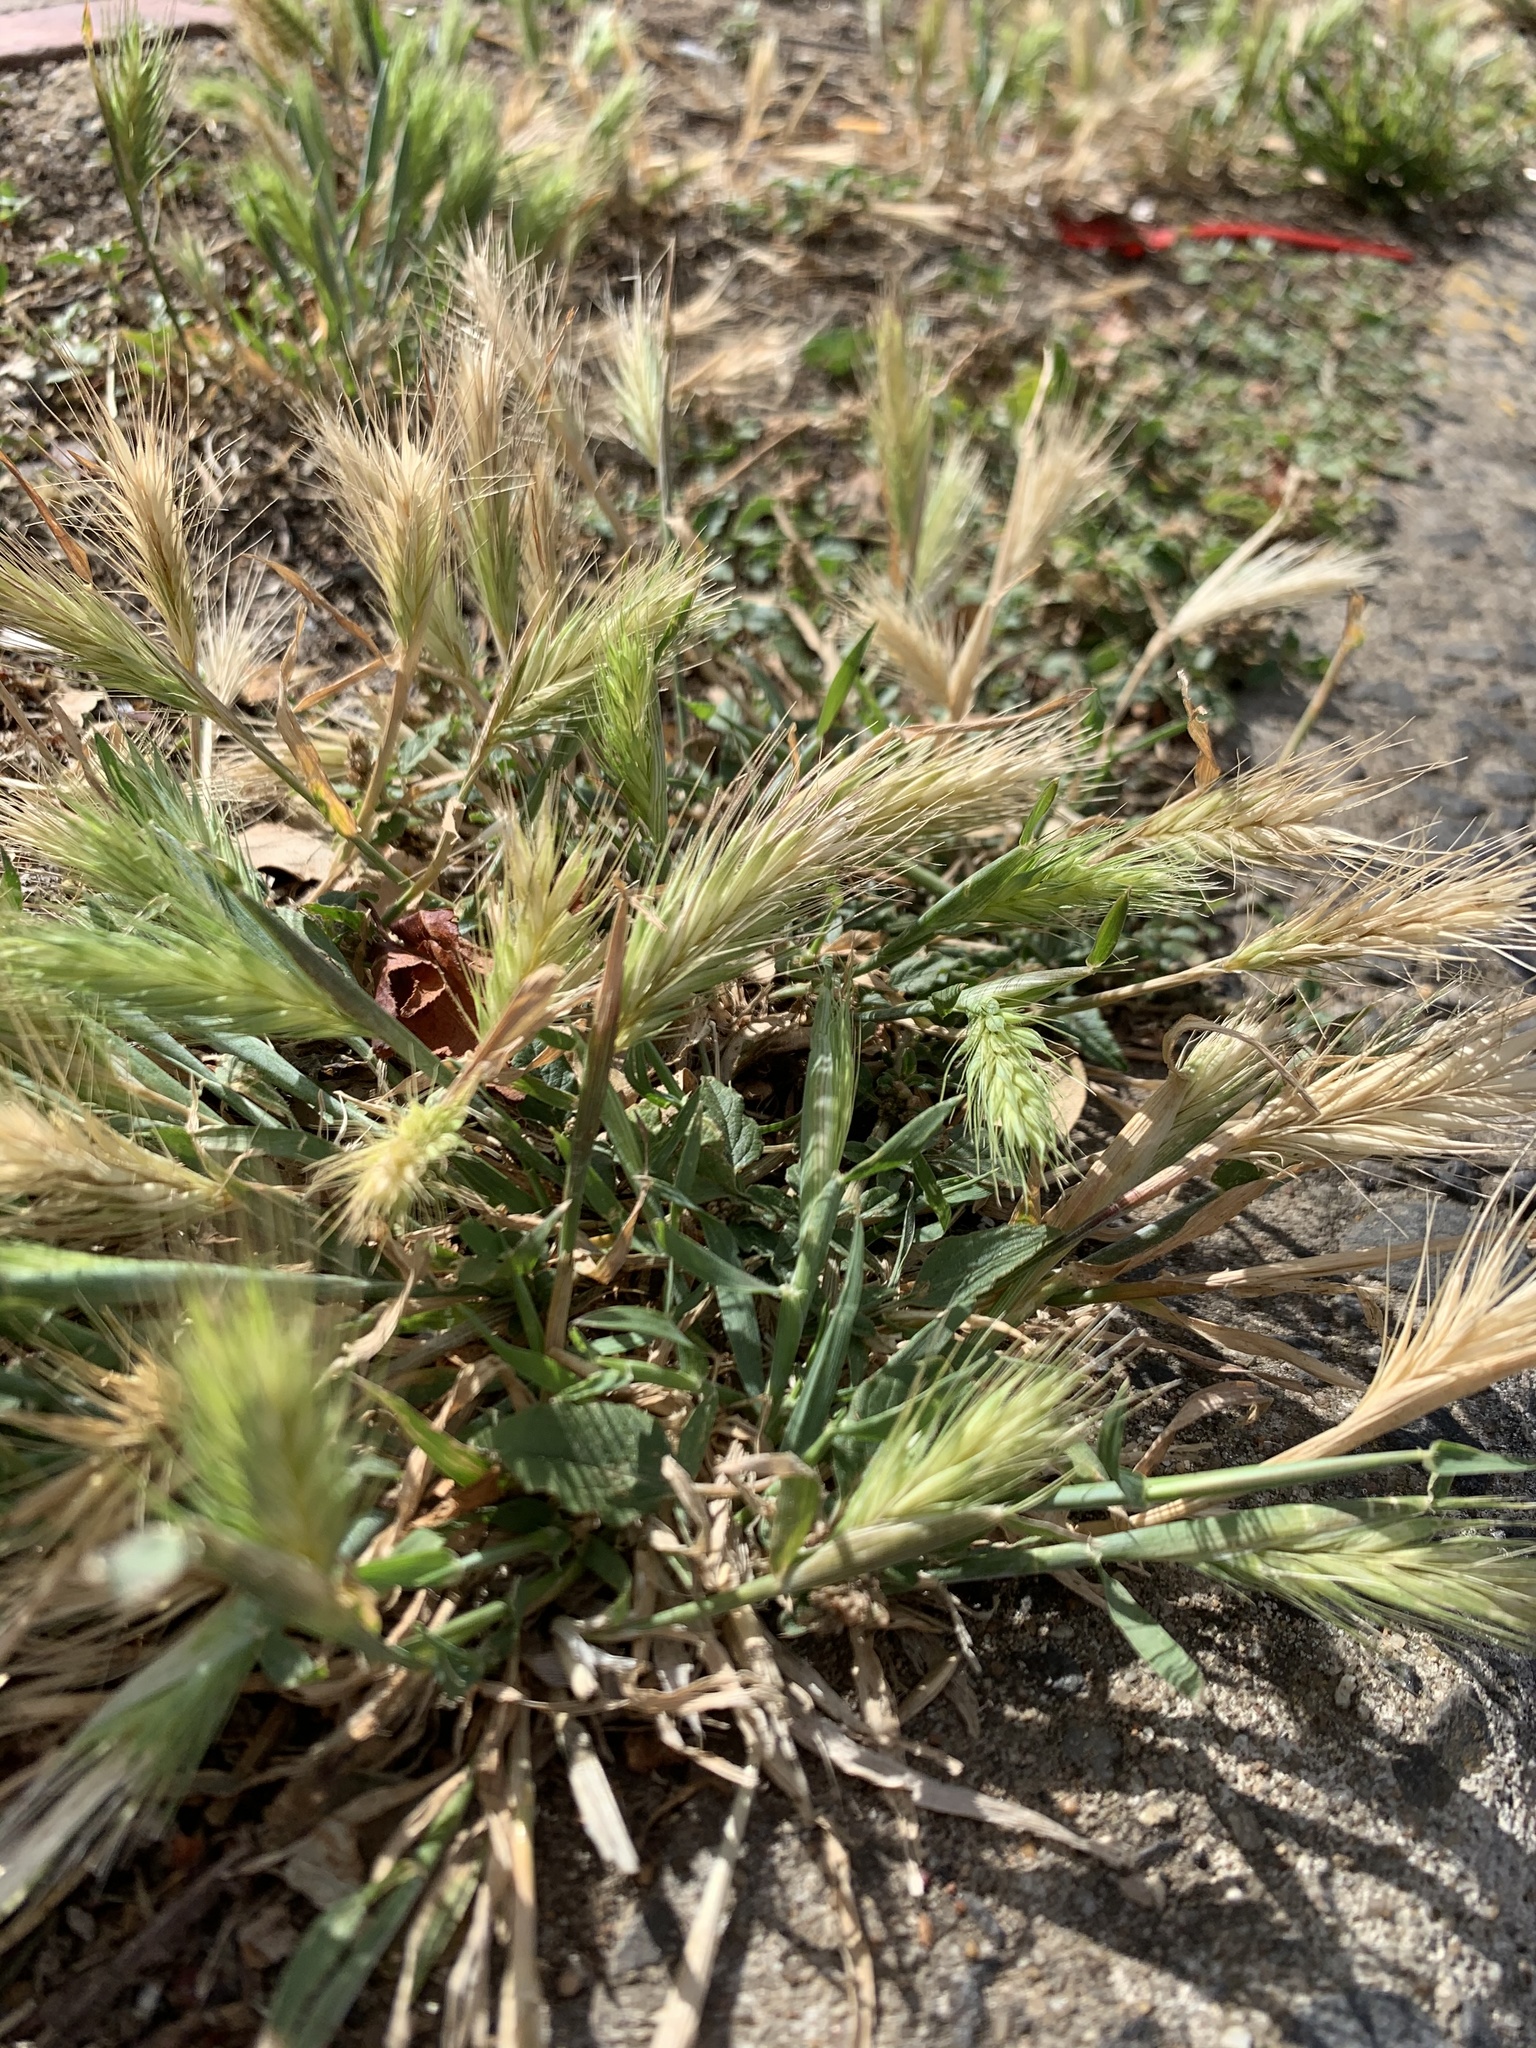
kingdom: Plantae
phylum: Tracheophyta
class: Liliopsida
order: Poales
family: Poaceae
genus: Hordeum
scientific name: Hordeum murinum
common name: Wall barley
